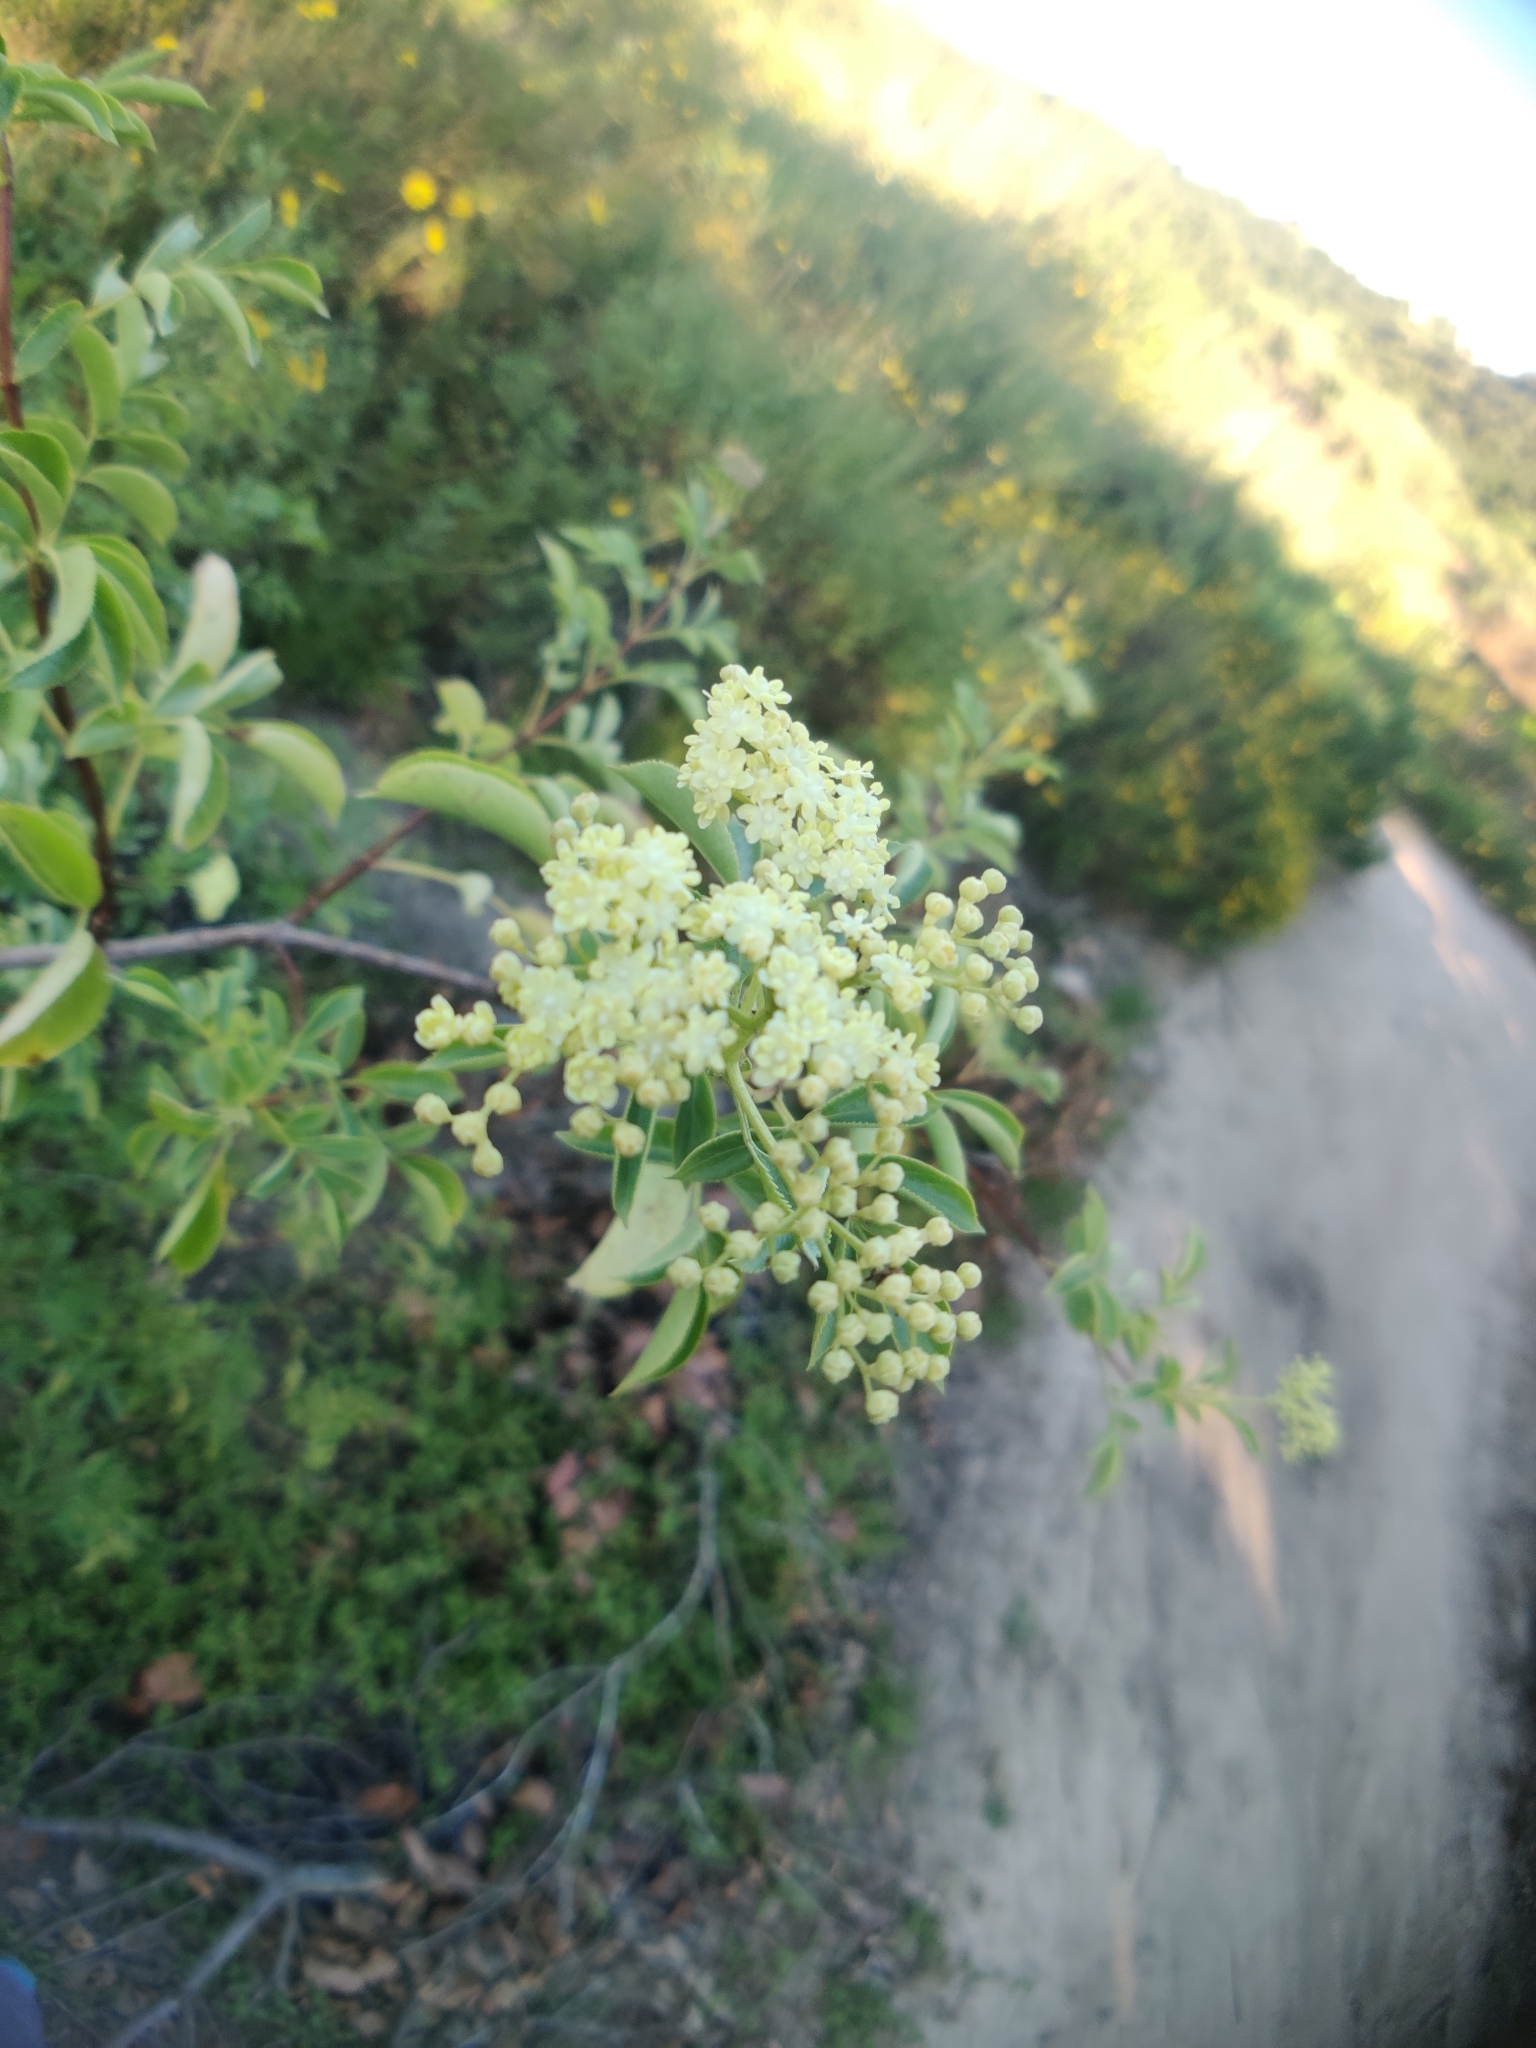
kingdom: Plantae
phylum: Tracheophyta
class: Magnoliopsida
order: Dipsacales
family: Viburnaceae
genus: Sambucus
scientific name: Sambucus cerulea
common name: Blue elder
